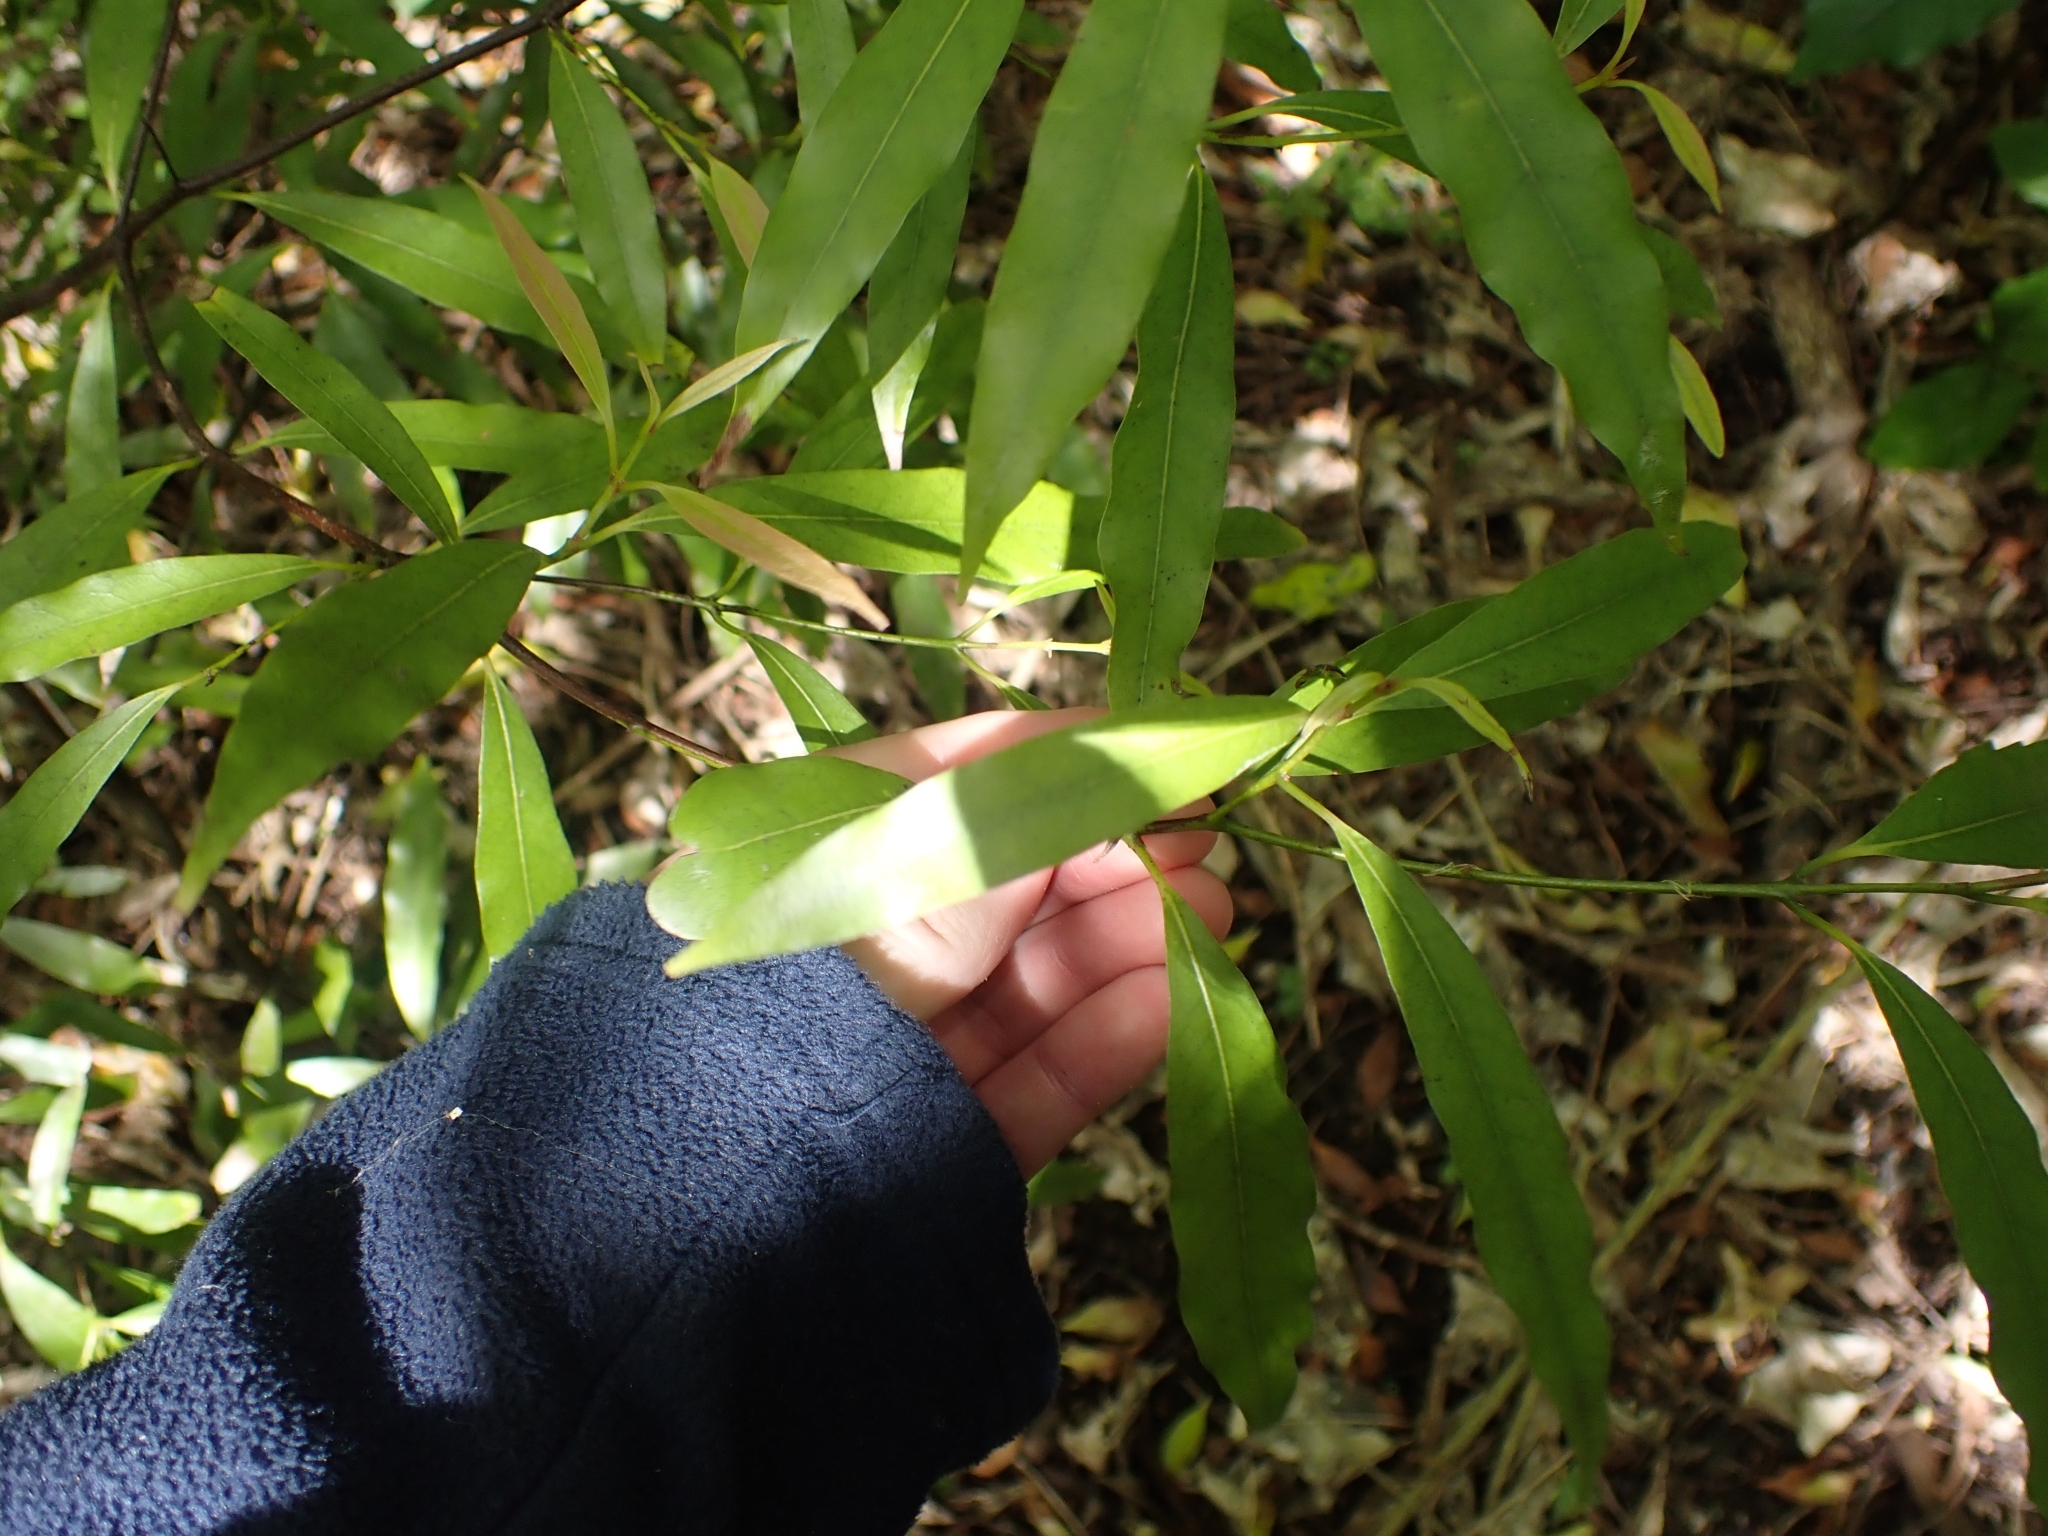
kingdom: Plantae
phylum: Tracheophyta
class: Magnoliopsida
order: Laurales
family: Lauraceae
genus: Beilschmiedia
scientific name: Beilschmiedia tawa
